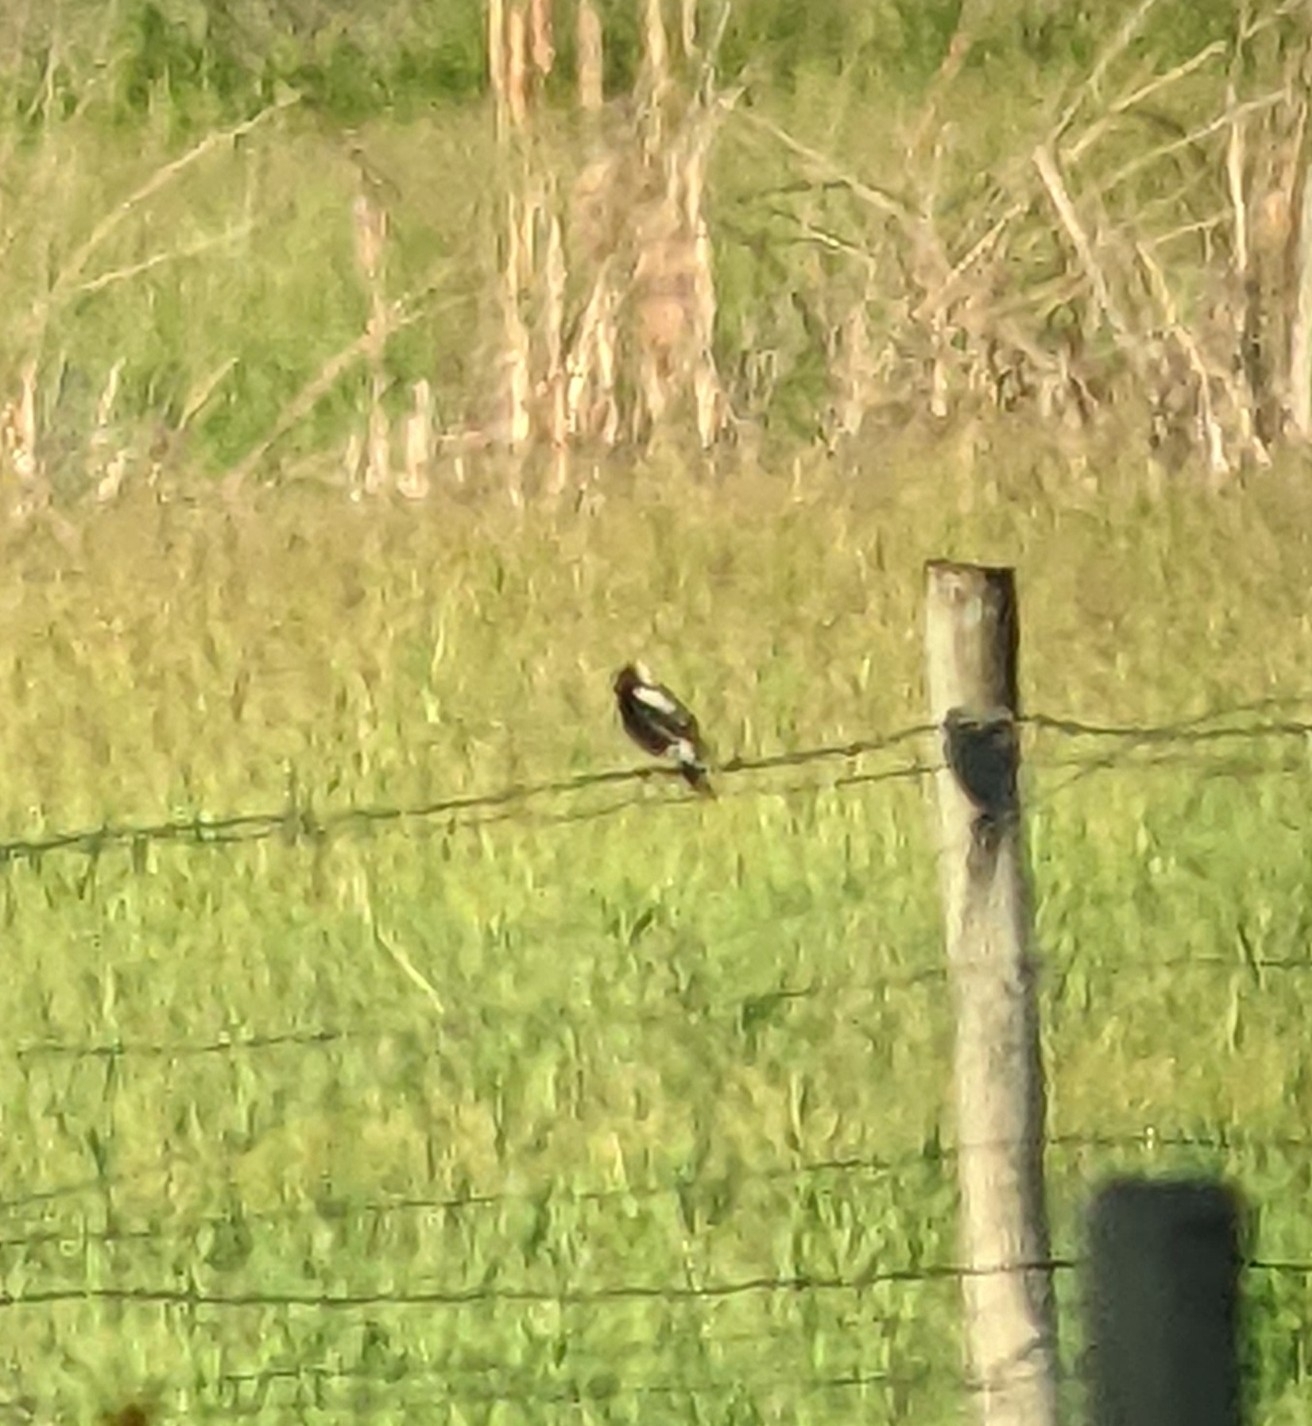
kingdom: Animalia
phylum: Chordata
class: Aves
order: Passeriformes
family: Icteridae
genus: Dolichonyx
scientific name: Dolichonyx oryzivorus
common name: Bobolink
